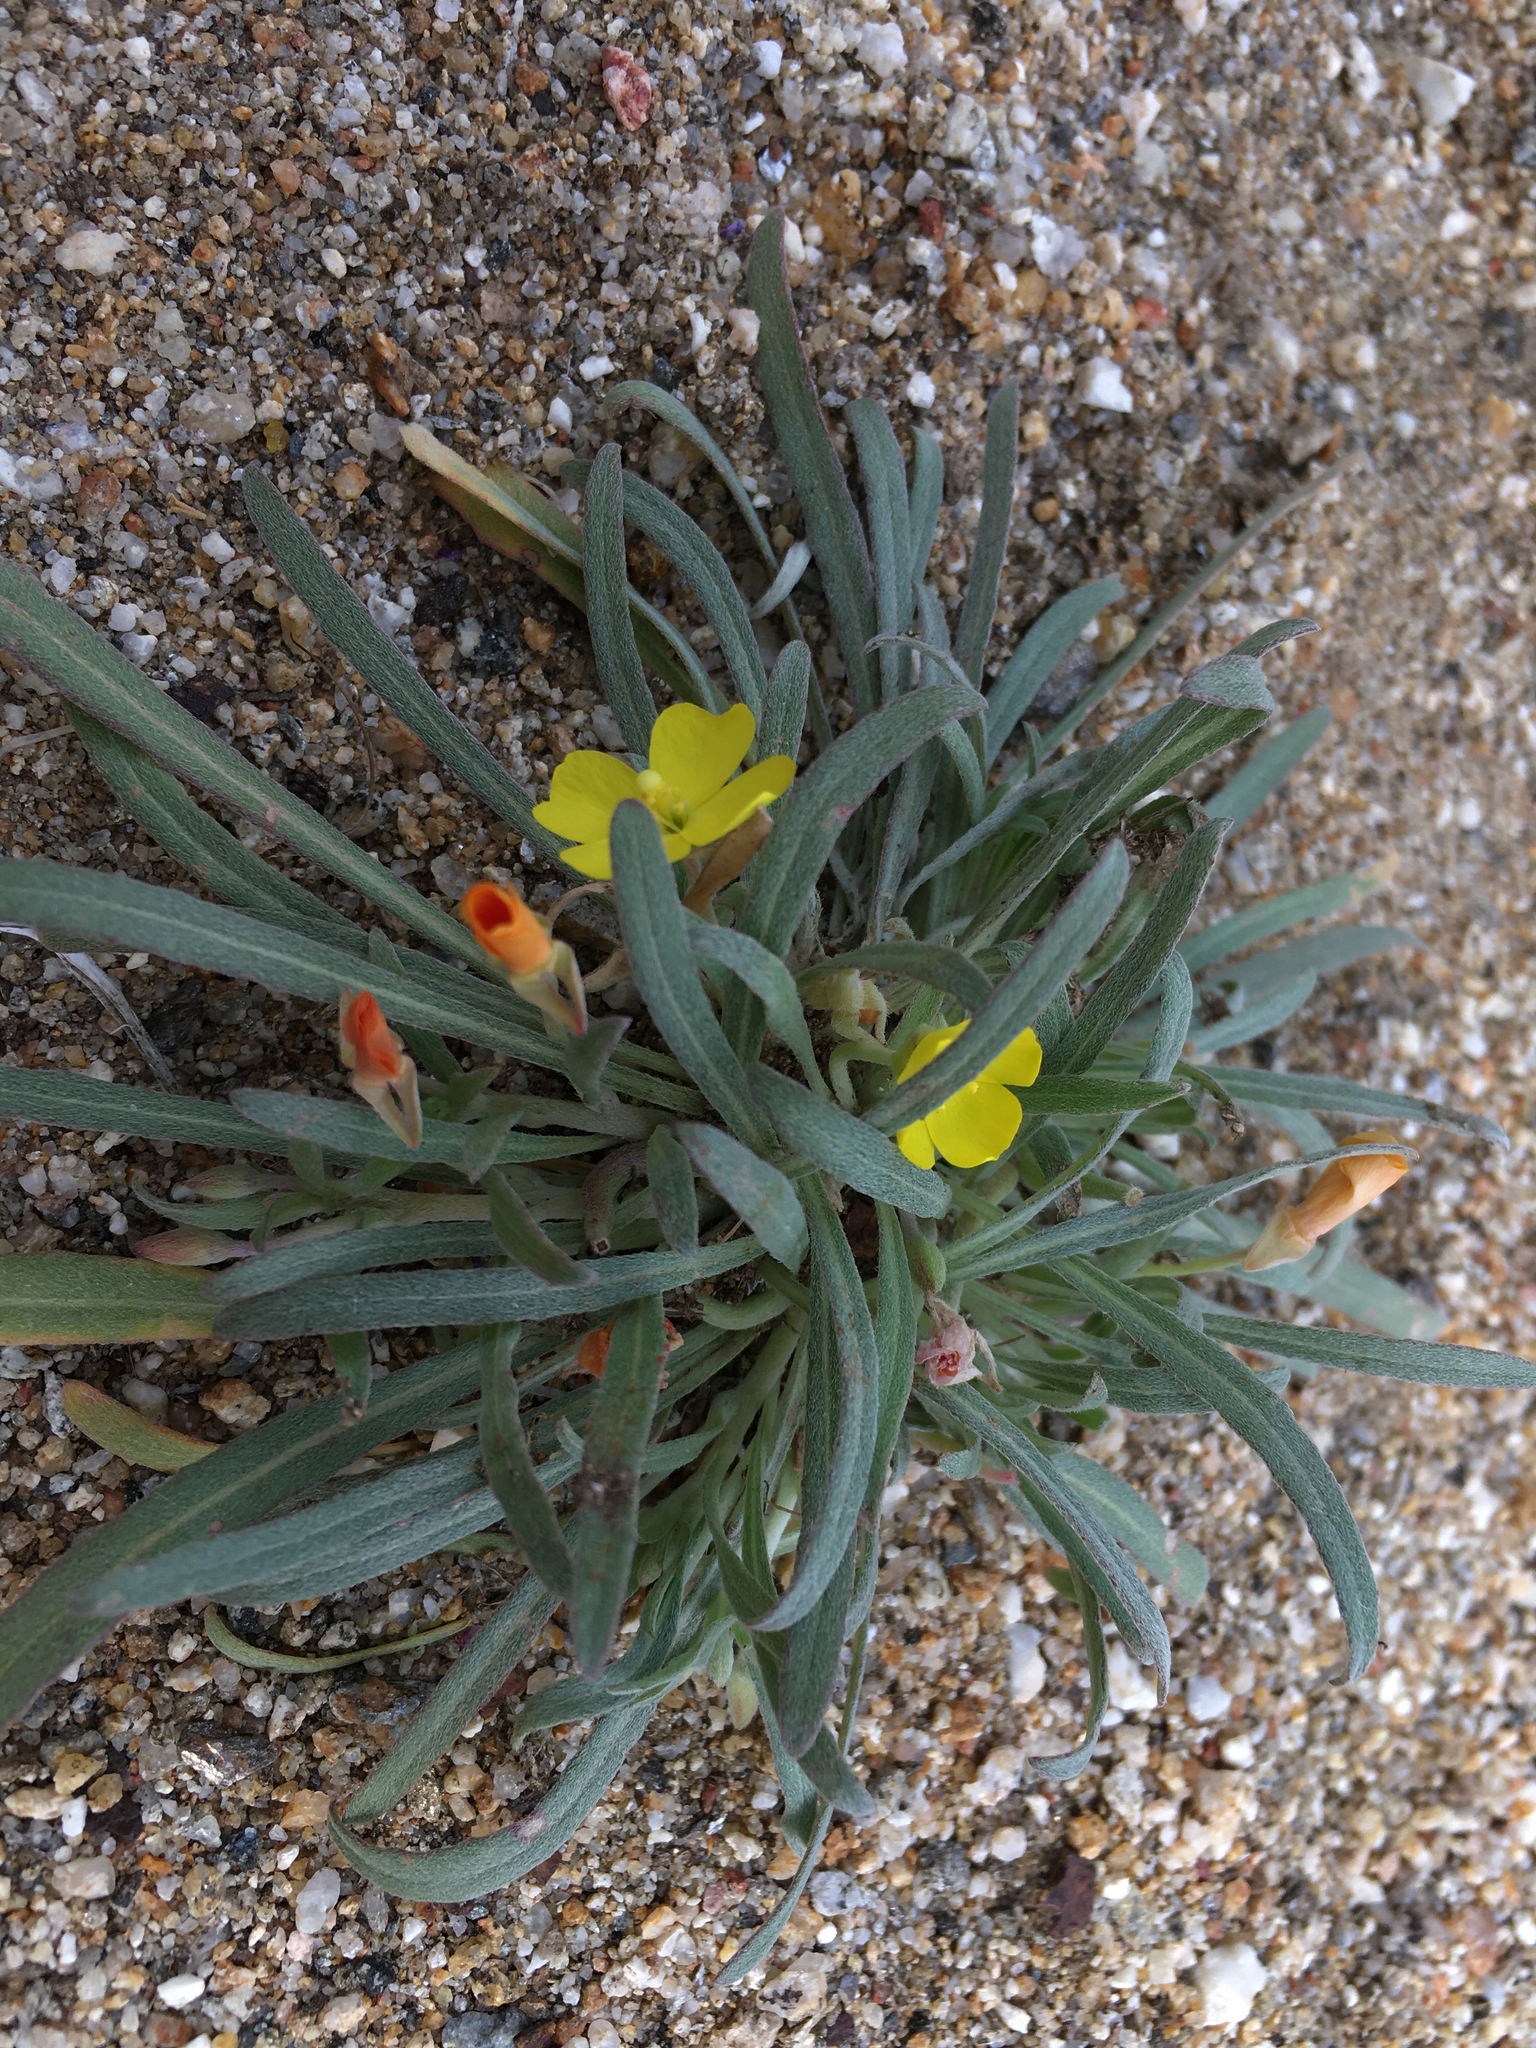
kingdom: Plantae
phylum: Tracheophyta
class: Magnoliopsida
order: Myrtales
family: Onagraceae
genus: Camissoniopsis
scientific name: Camissoniopsis pallida
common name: Paleyellow suncup
